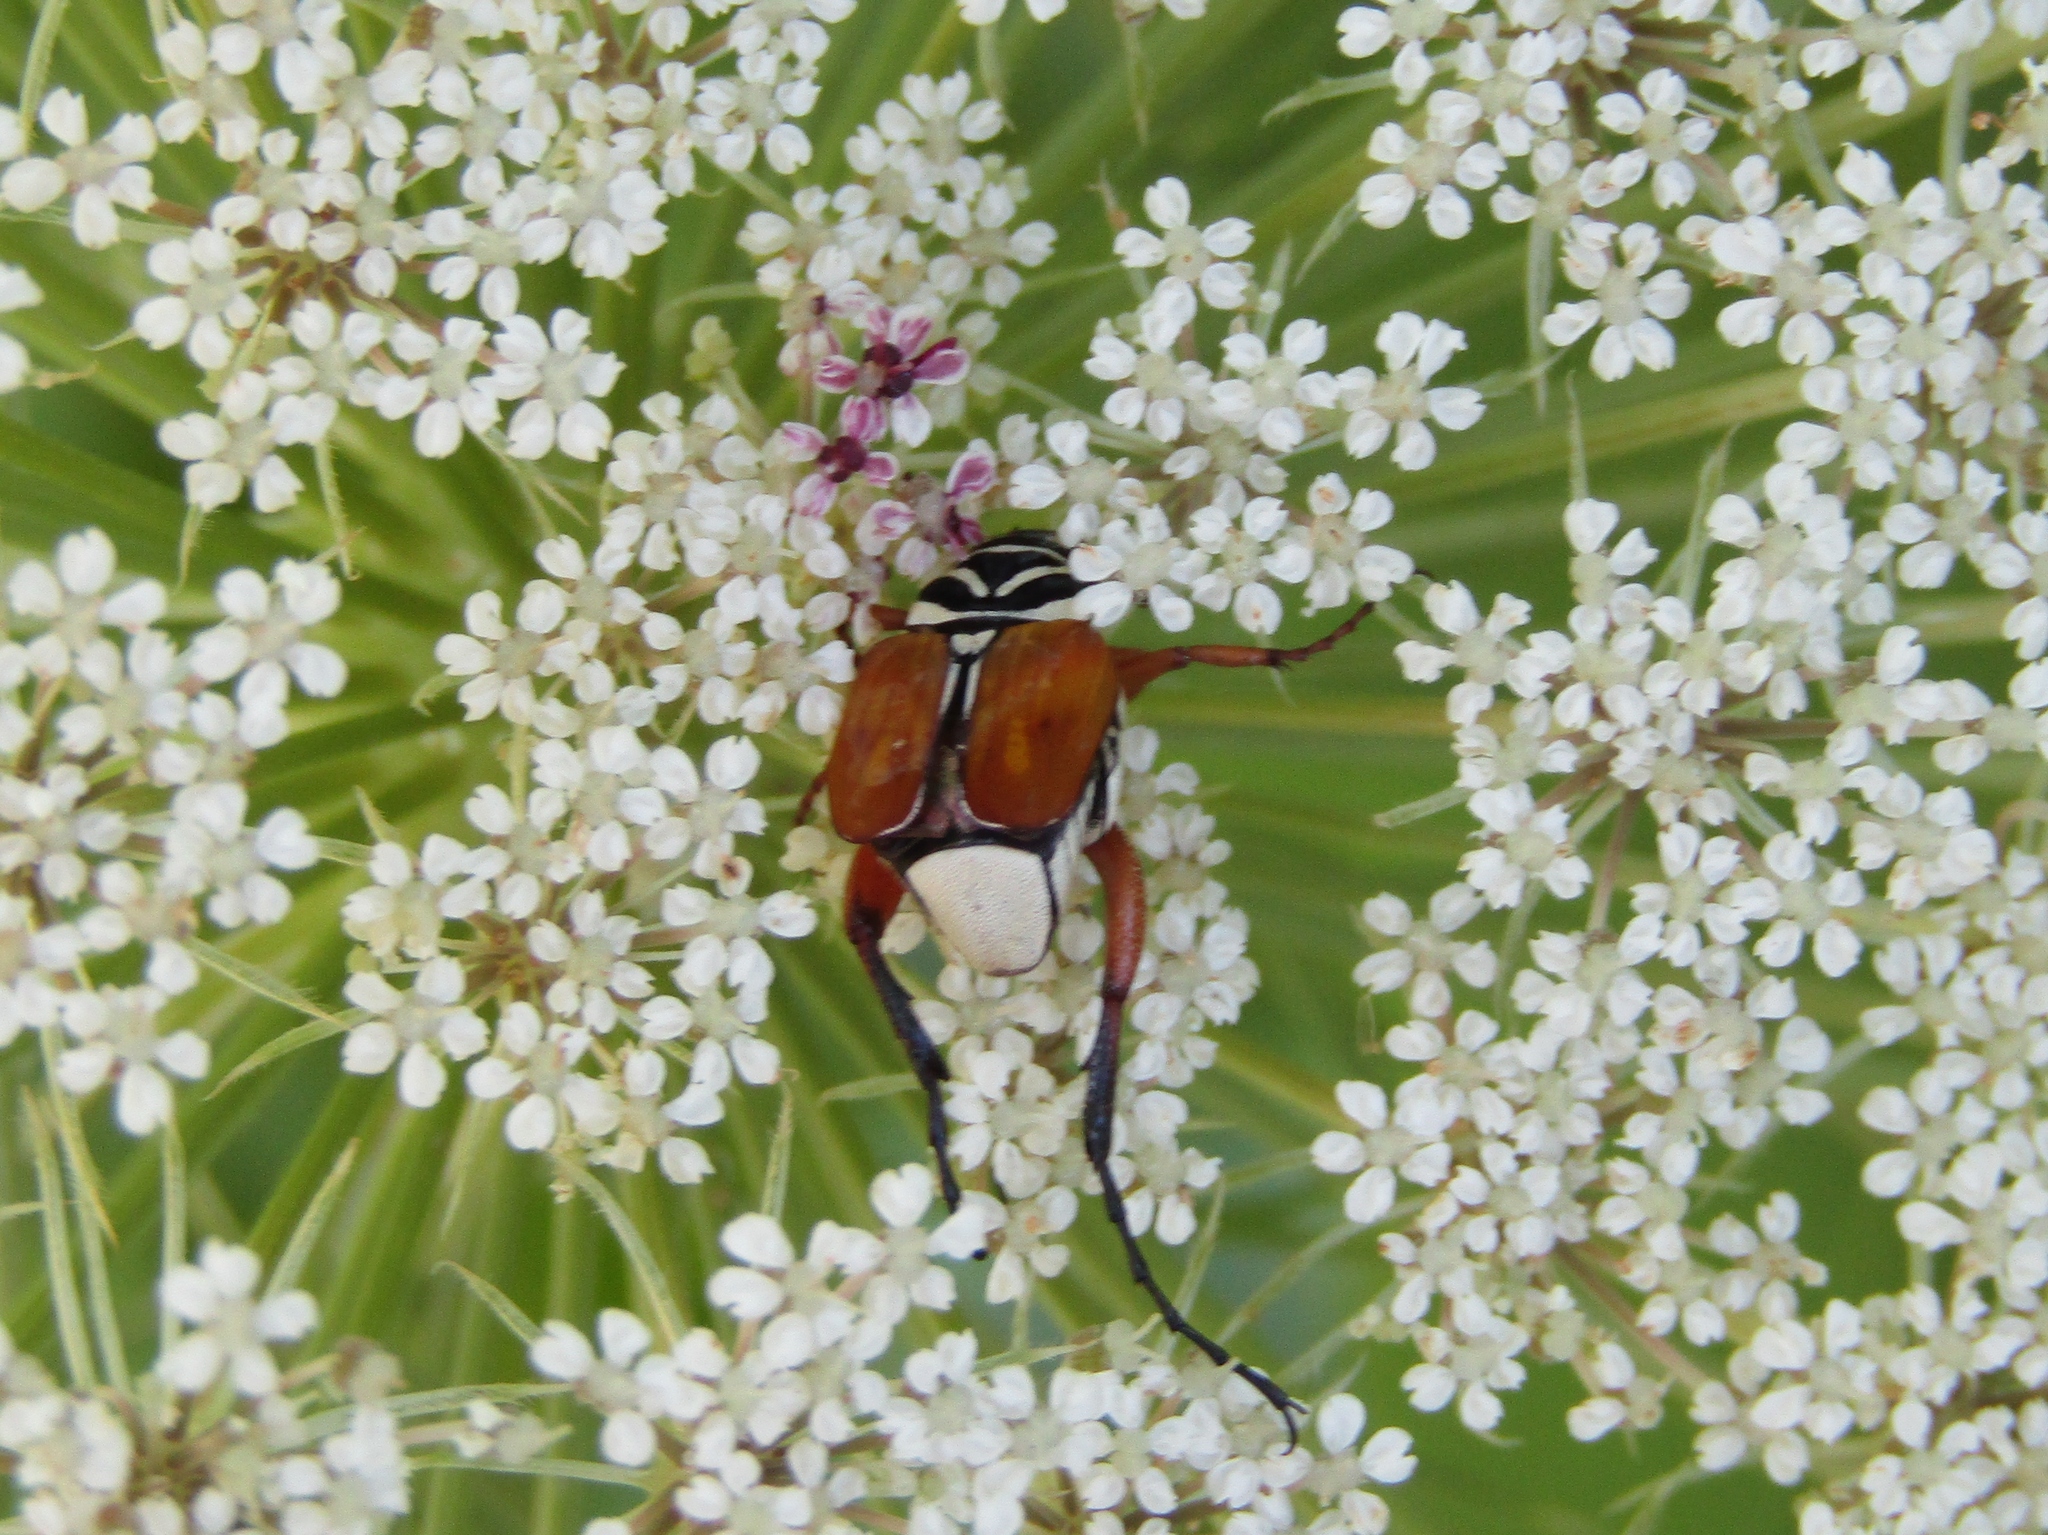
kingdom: Animalia
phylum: Arthropoda
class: Insecta
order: Coleoptera
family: Scarabaeidae
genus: Trigonopeltastes
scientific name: Trigonopeltastes delta
